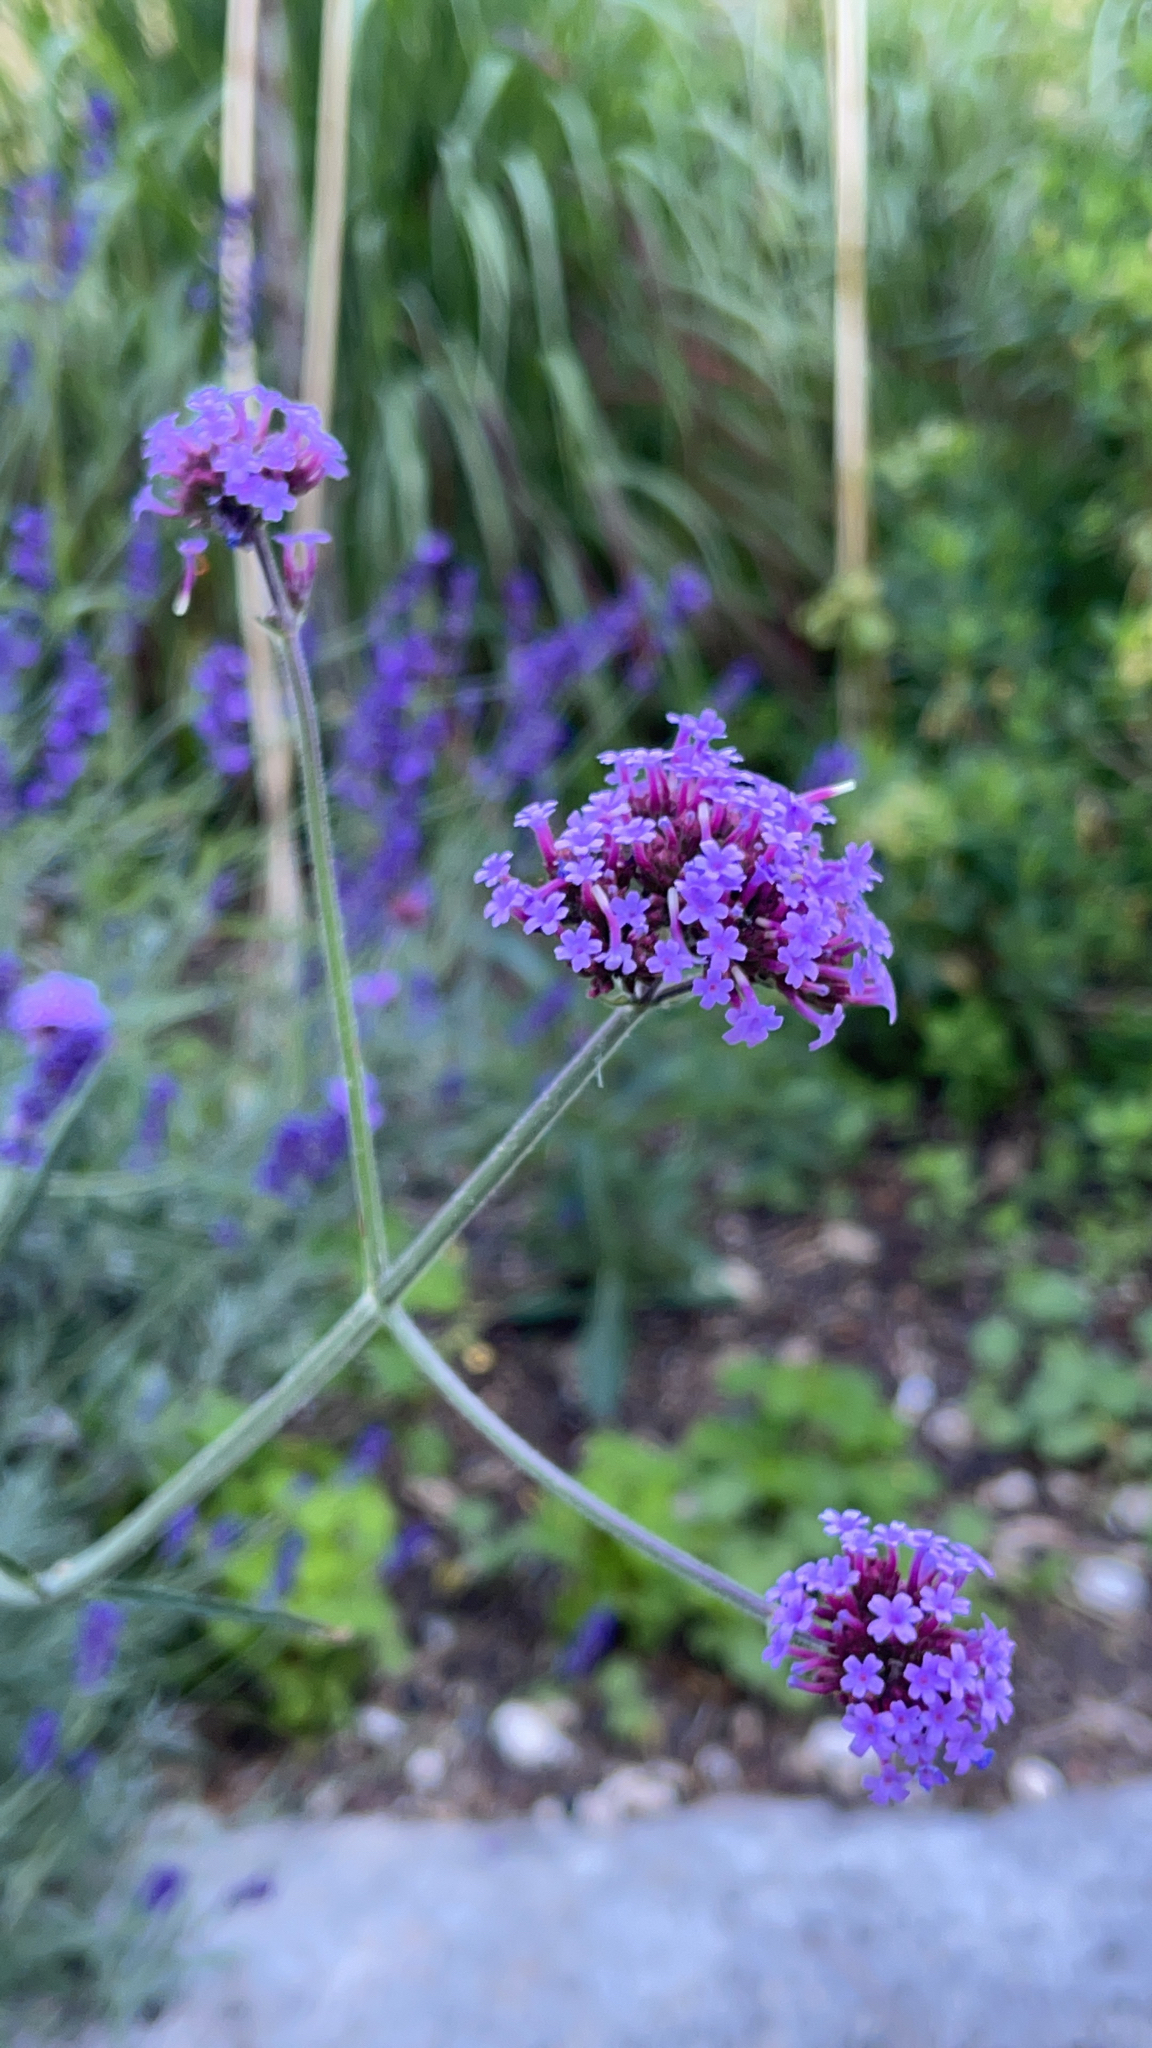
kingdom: Plantae
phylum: Tracheophyta
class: Magnoliopsida
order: Lamiales
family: Verbenaceae
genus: Verbena
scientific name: Verbena bonariensis
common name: Purpletop vervain
